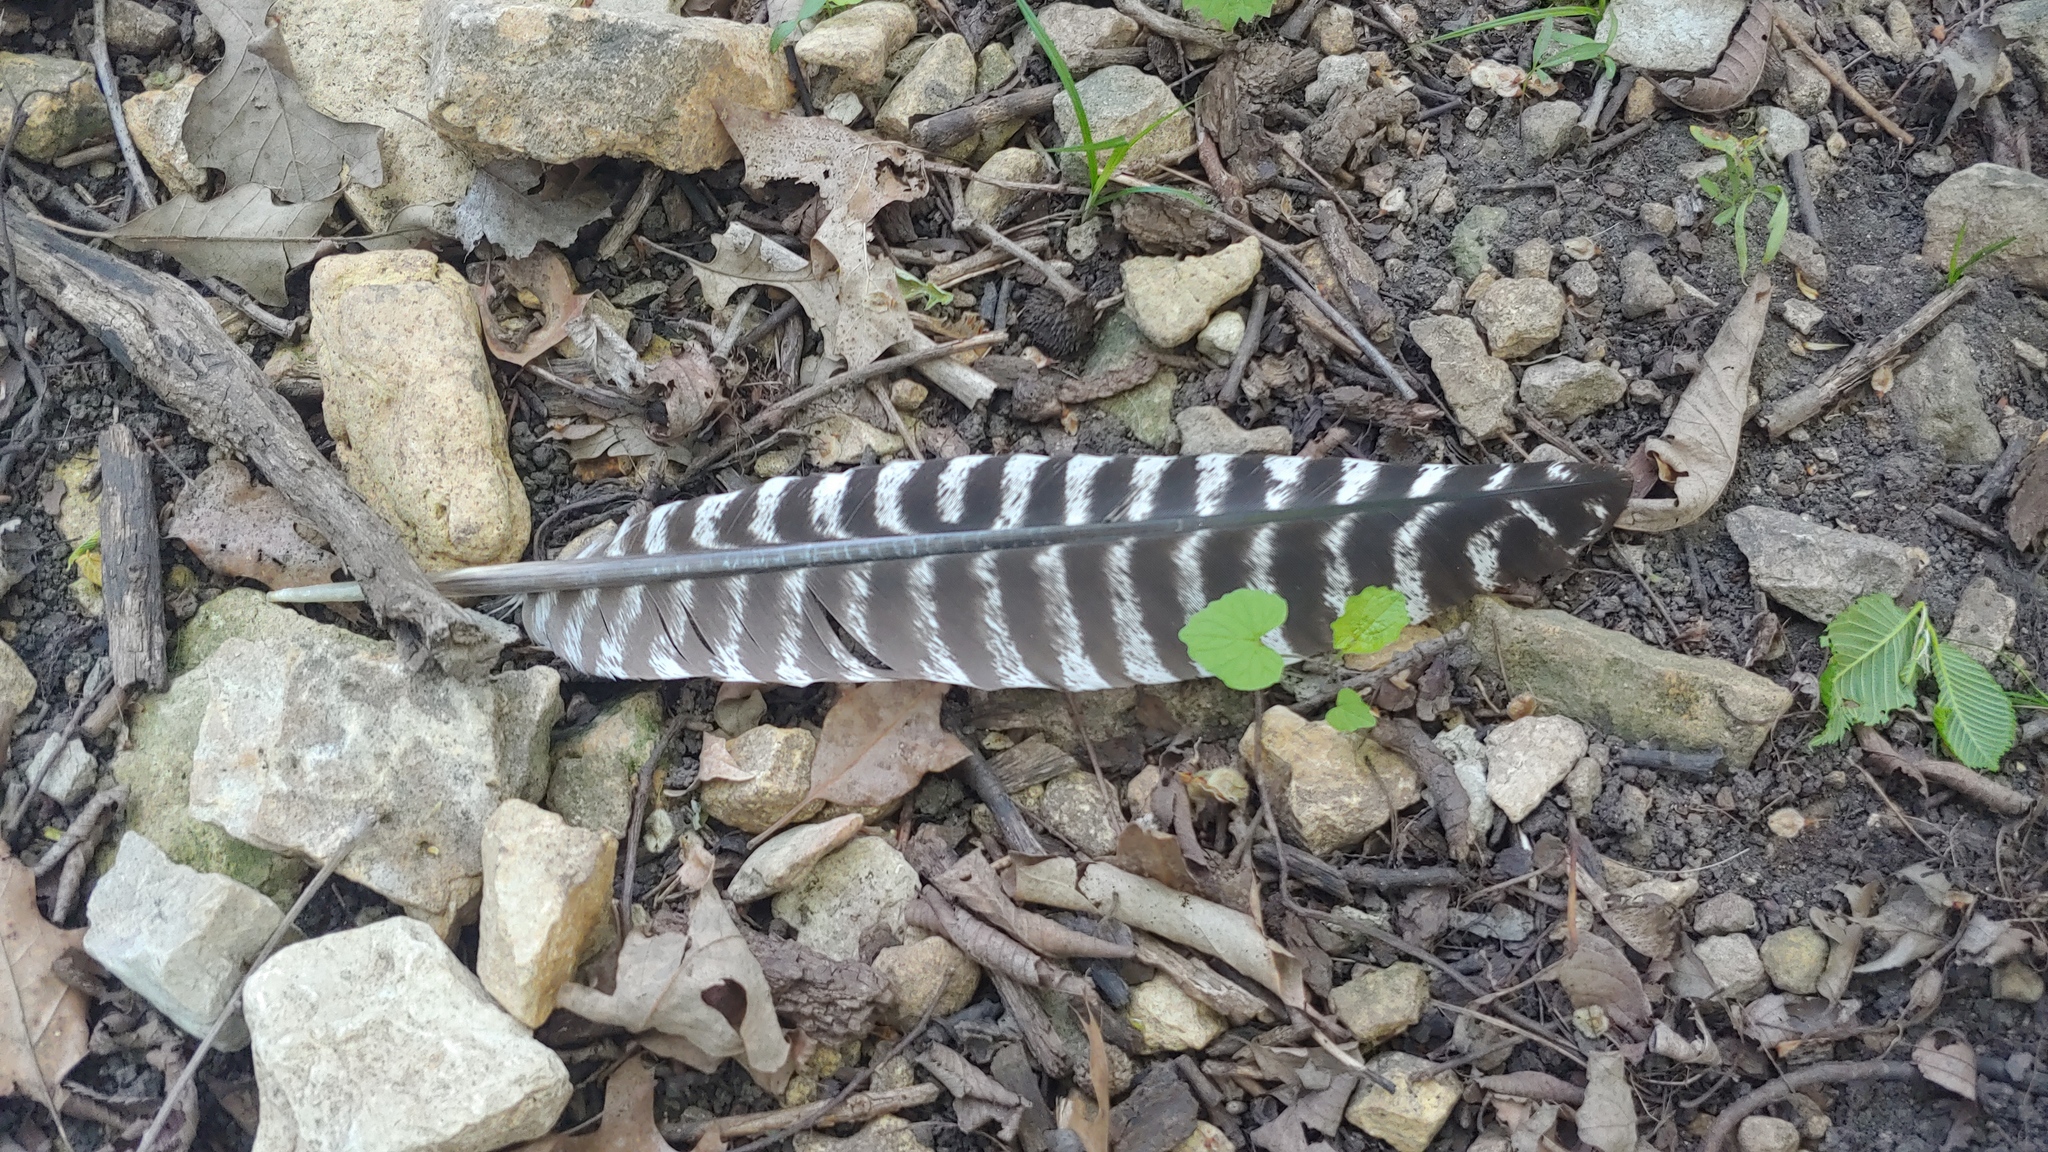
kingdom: Animalia
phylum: Chordata
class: Aves
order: Galliformes
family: Phasianidae
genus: Meleagris
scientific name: Meleagris gallopavo
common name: Wild turkey
